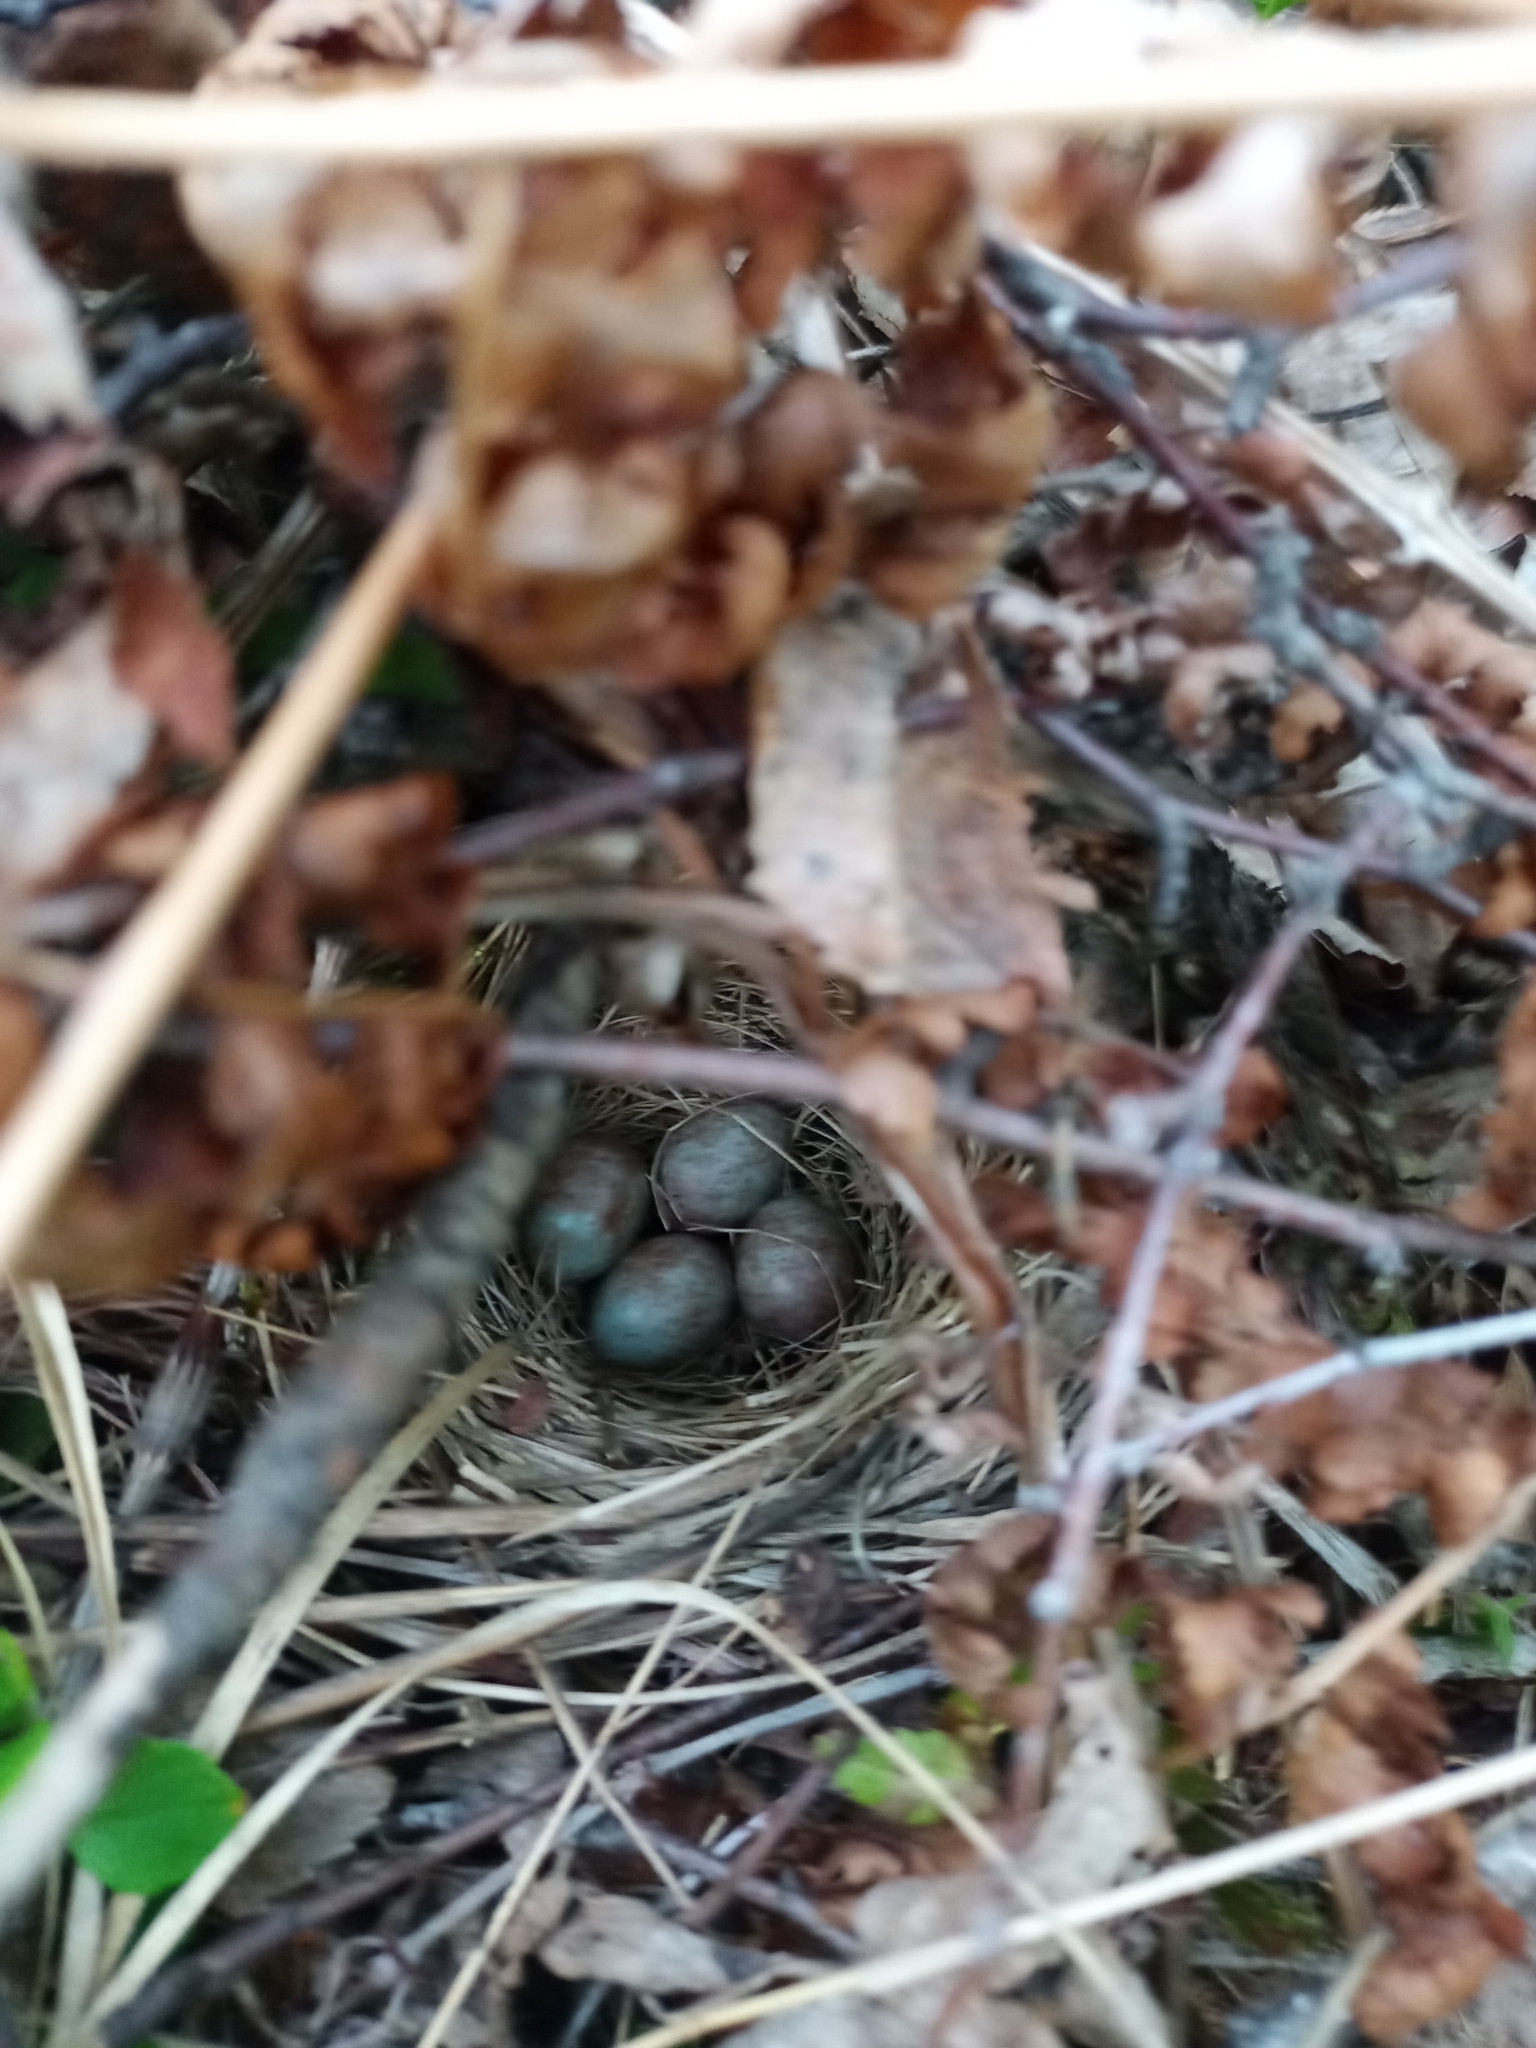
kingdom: Animalia
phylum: Chordata
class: Aves
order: Passeriformes
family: Passerellidae
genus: Zonotrichia
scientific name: Zonotrichia albicollis
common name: White-throated sparrow
